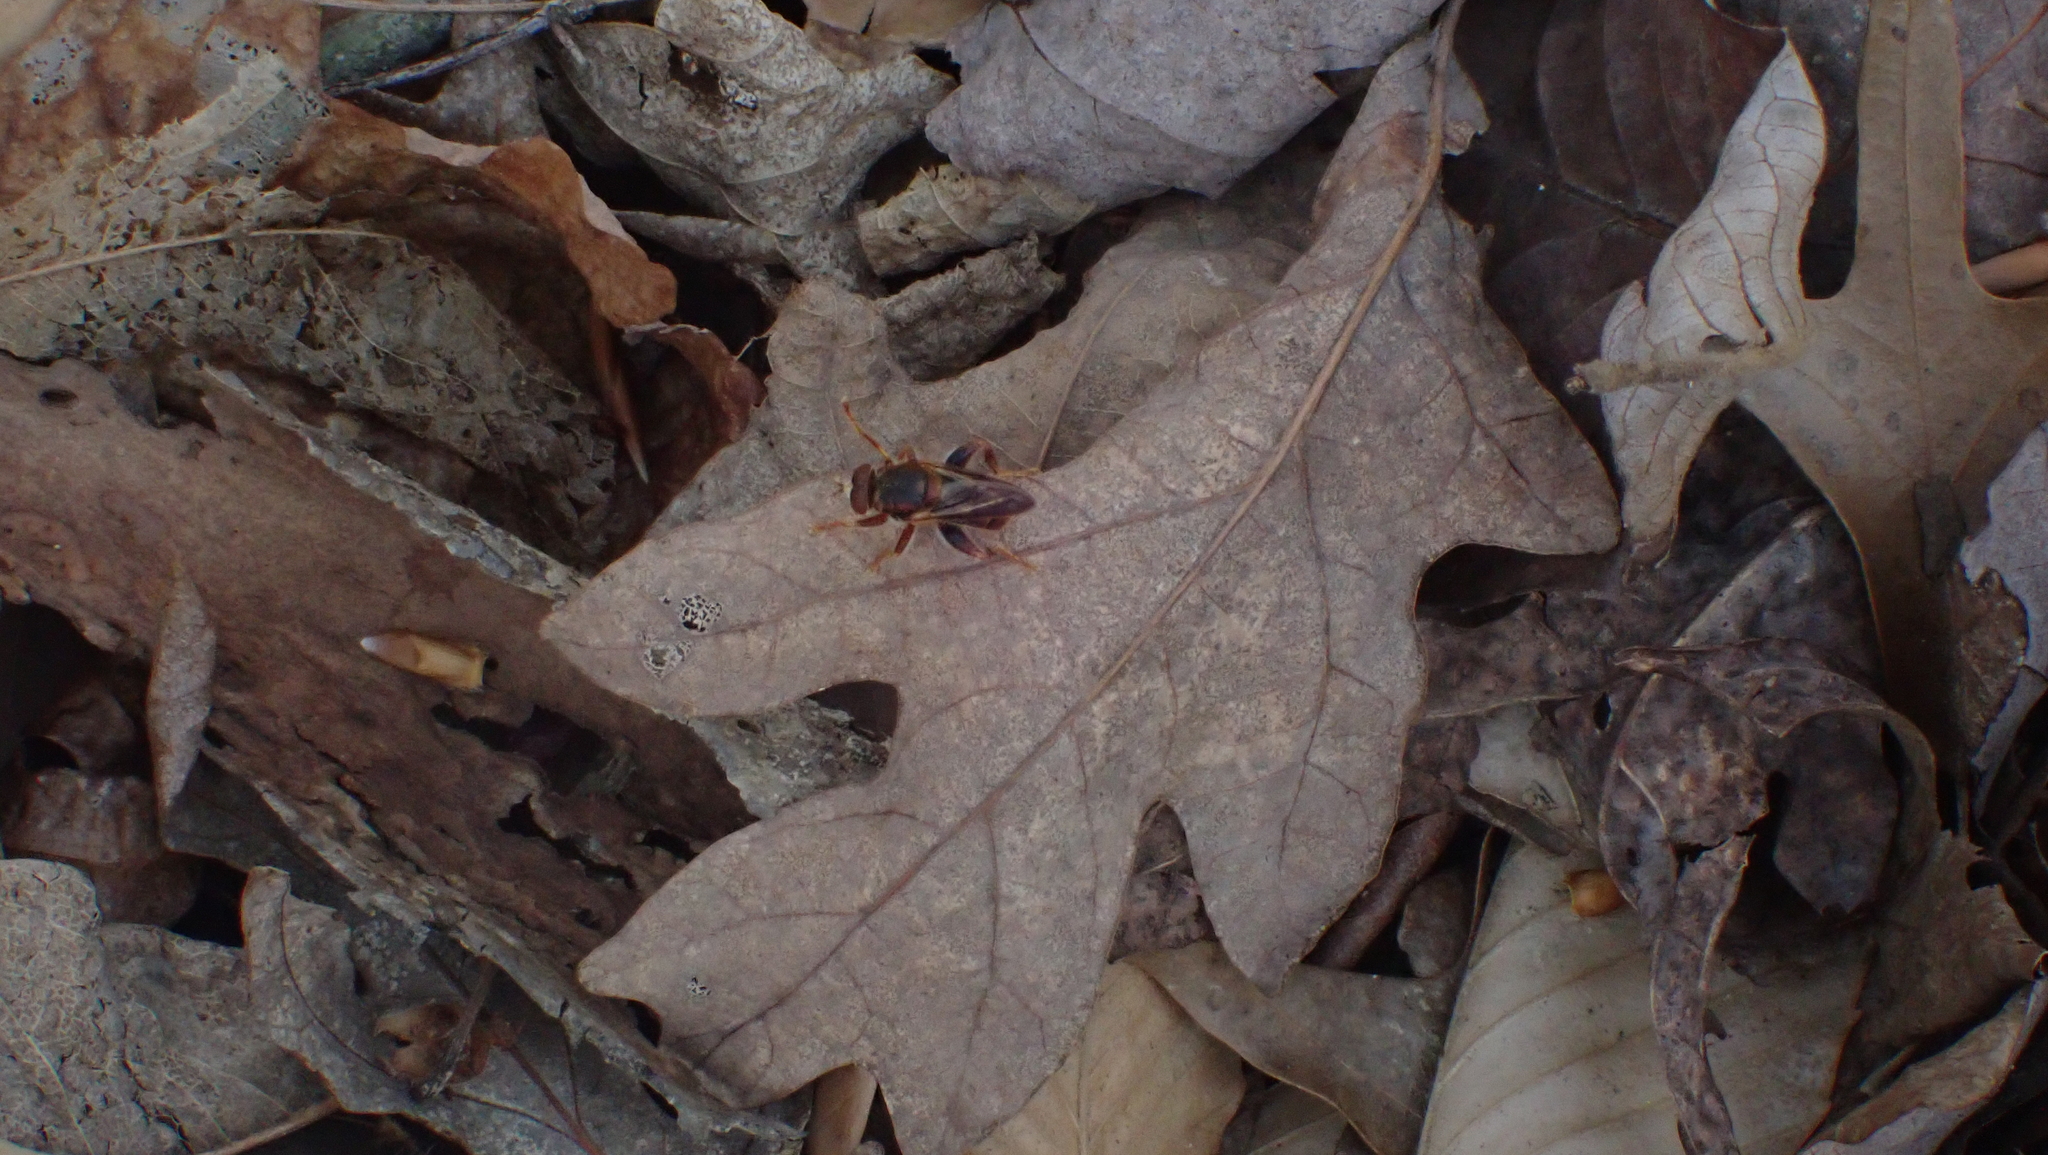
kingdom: Animalia
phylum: Arthropoda
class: Insecta
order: Diptera
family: Syrphidae
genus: Teuchocnemis
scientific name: Teuchocnemis bacuntius
